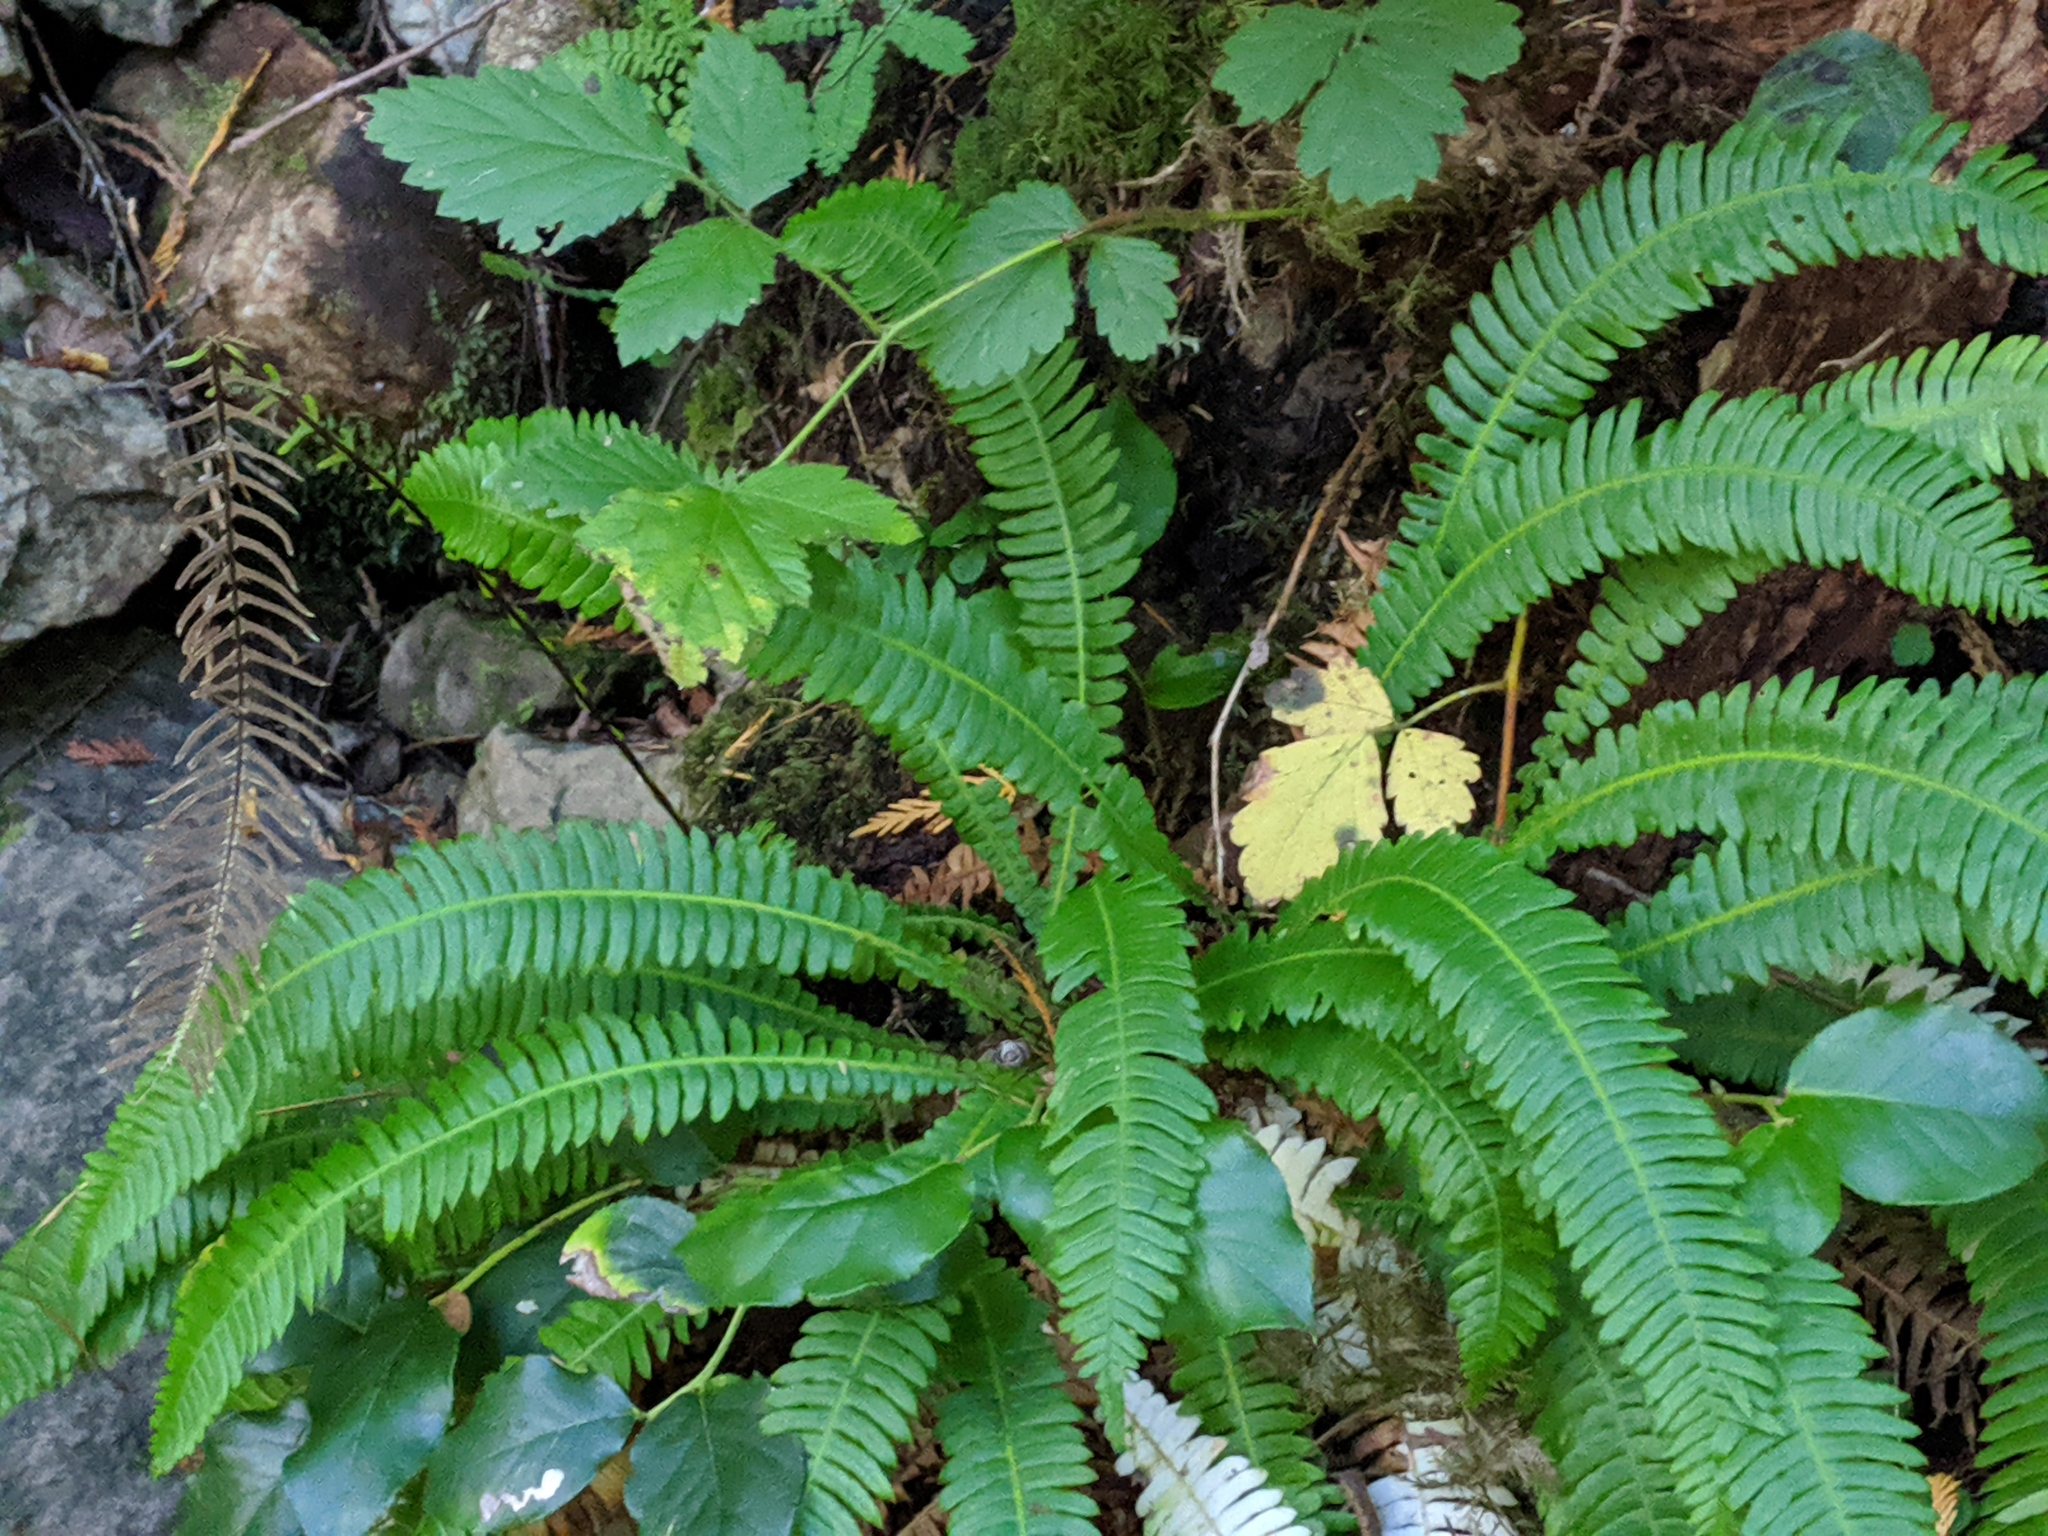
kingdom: Plantae
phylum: Tracheophyta
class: Polypodiopsida
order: Polypodiales
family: Blechnaceae
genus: Struthiopteris
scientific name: Struthiopteris spicant
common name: Deer fern
